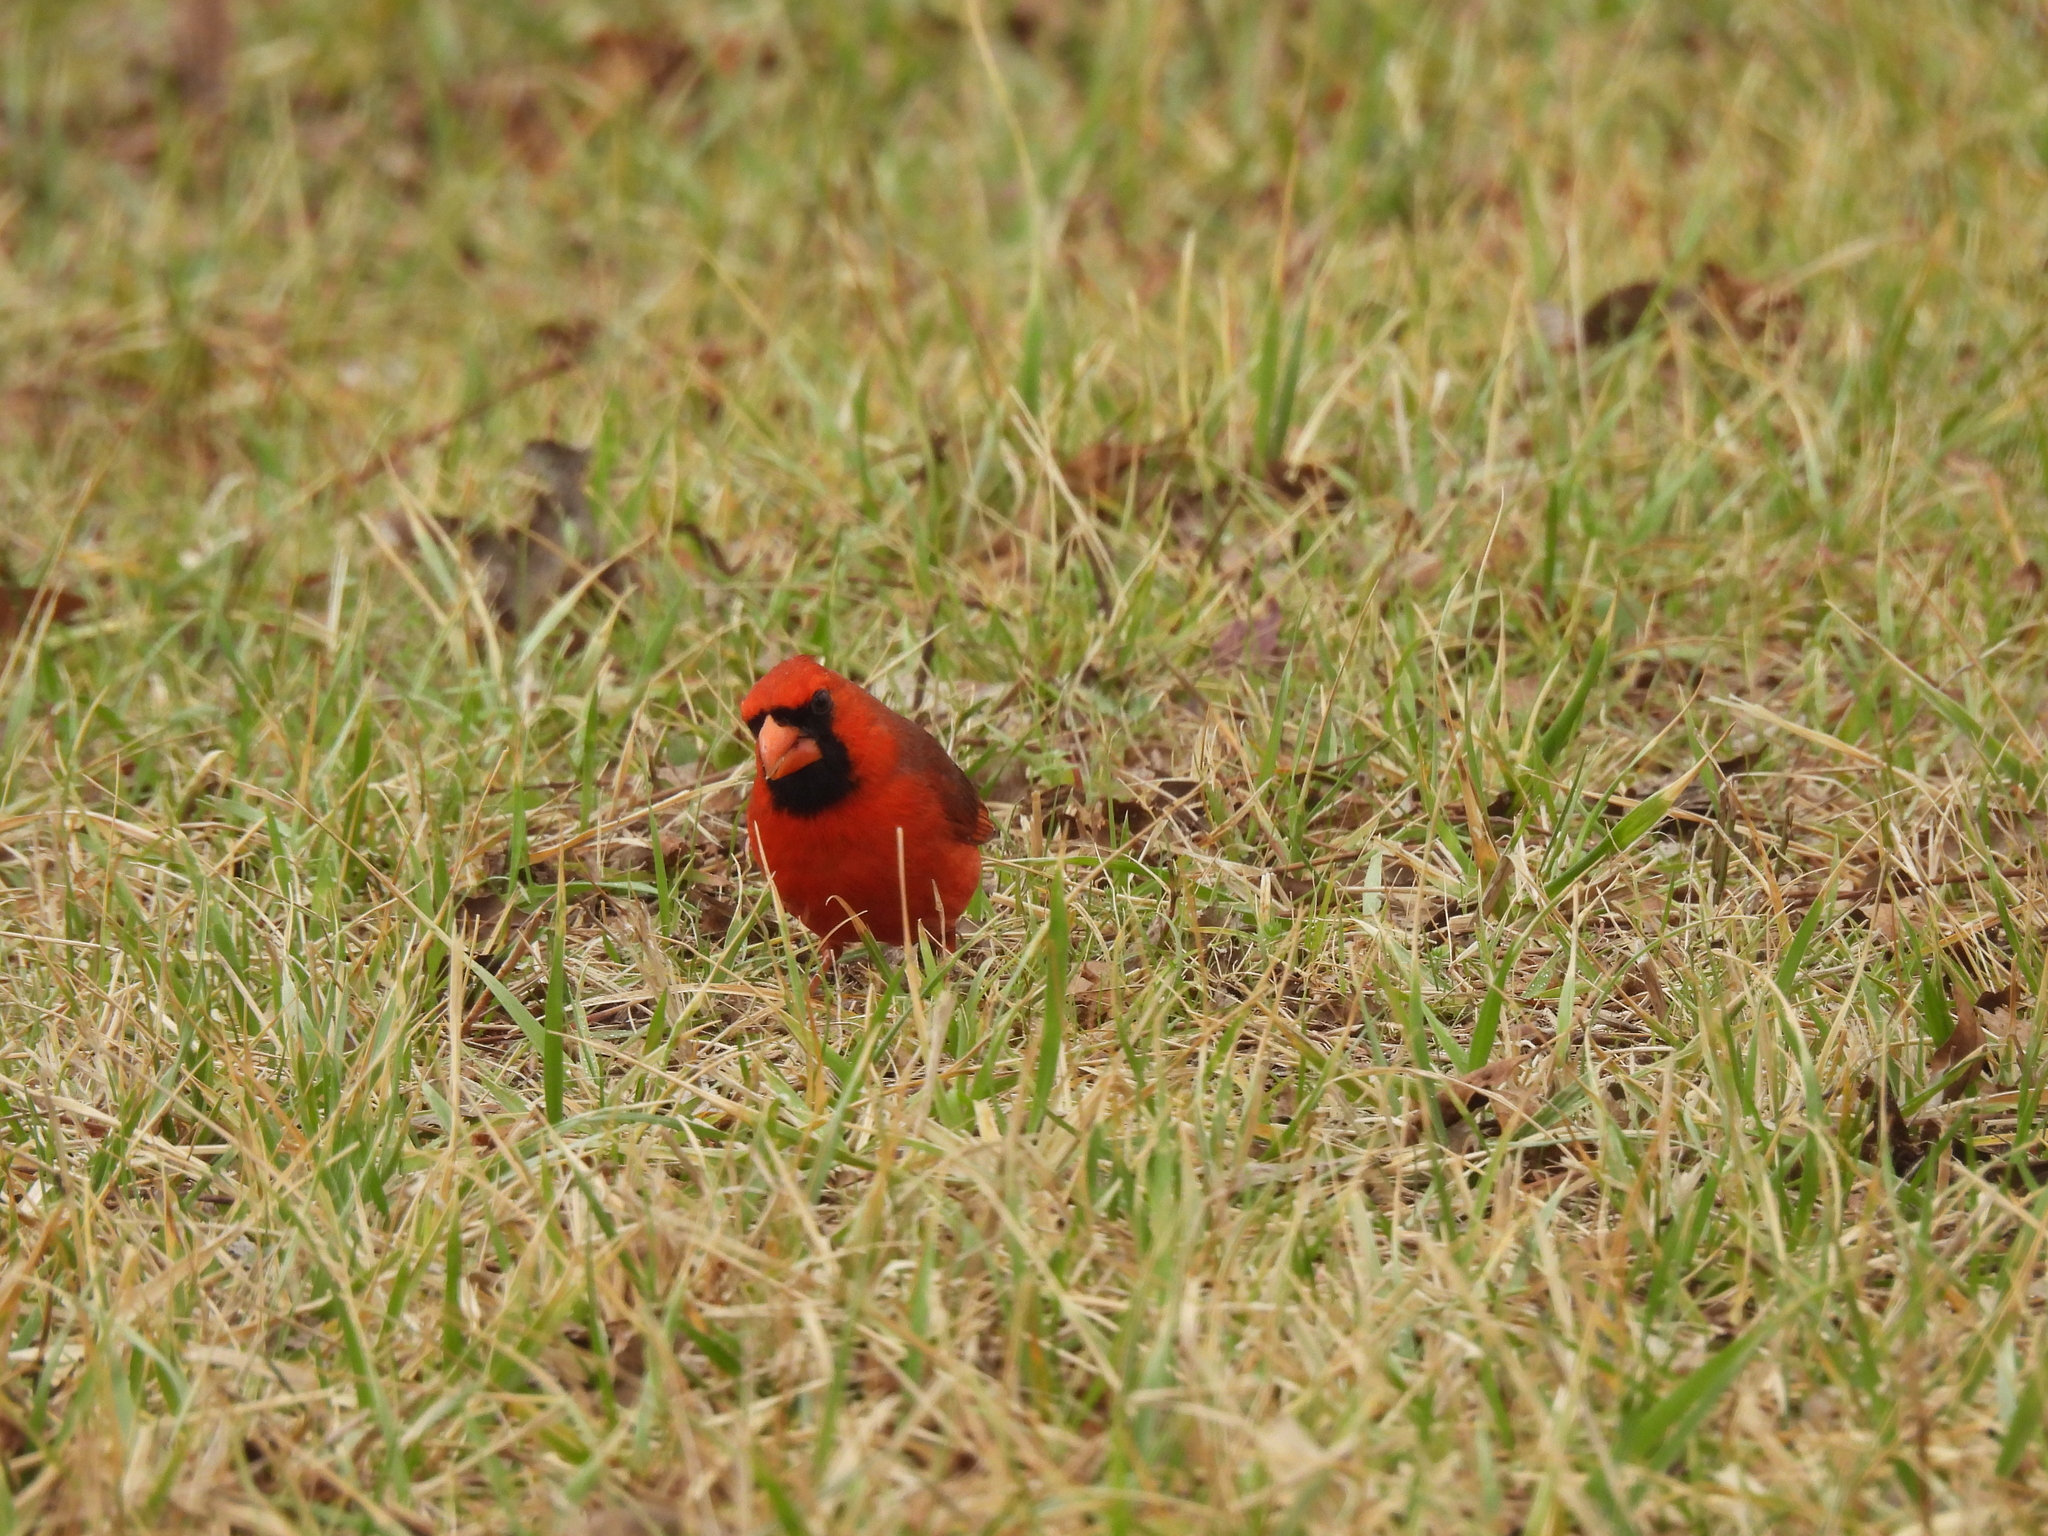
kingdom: Animalia
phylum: Chordata
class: Aves
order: Passeriformes
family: Cardinalidae
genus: Cardinalis
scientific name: Cardinalis cardinalis
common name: Northern cardinal
